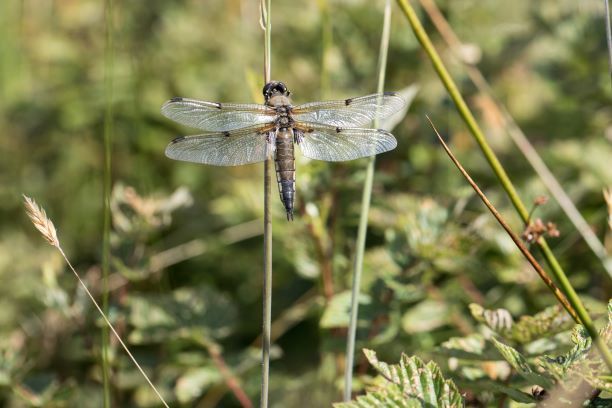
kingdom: Animalia
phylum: Arthropoda
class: Insecta
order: Odonata
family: Libellulidae
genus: Libellula
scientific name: Libellula quadrimaculata
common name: Four-spotted chaser
